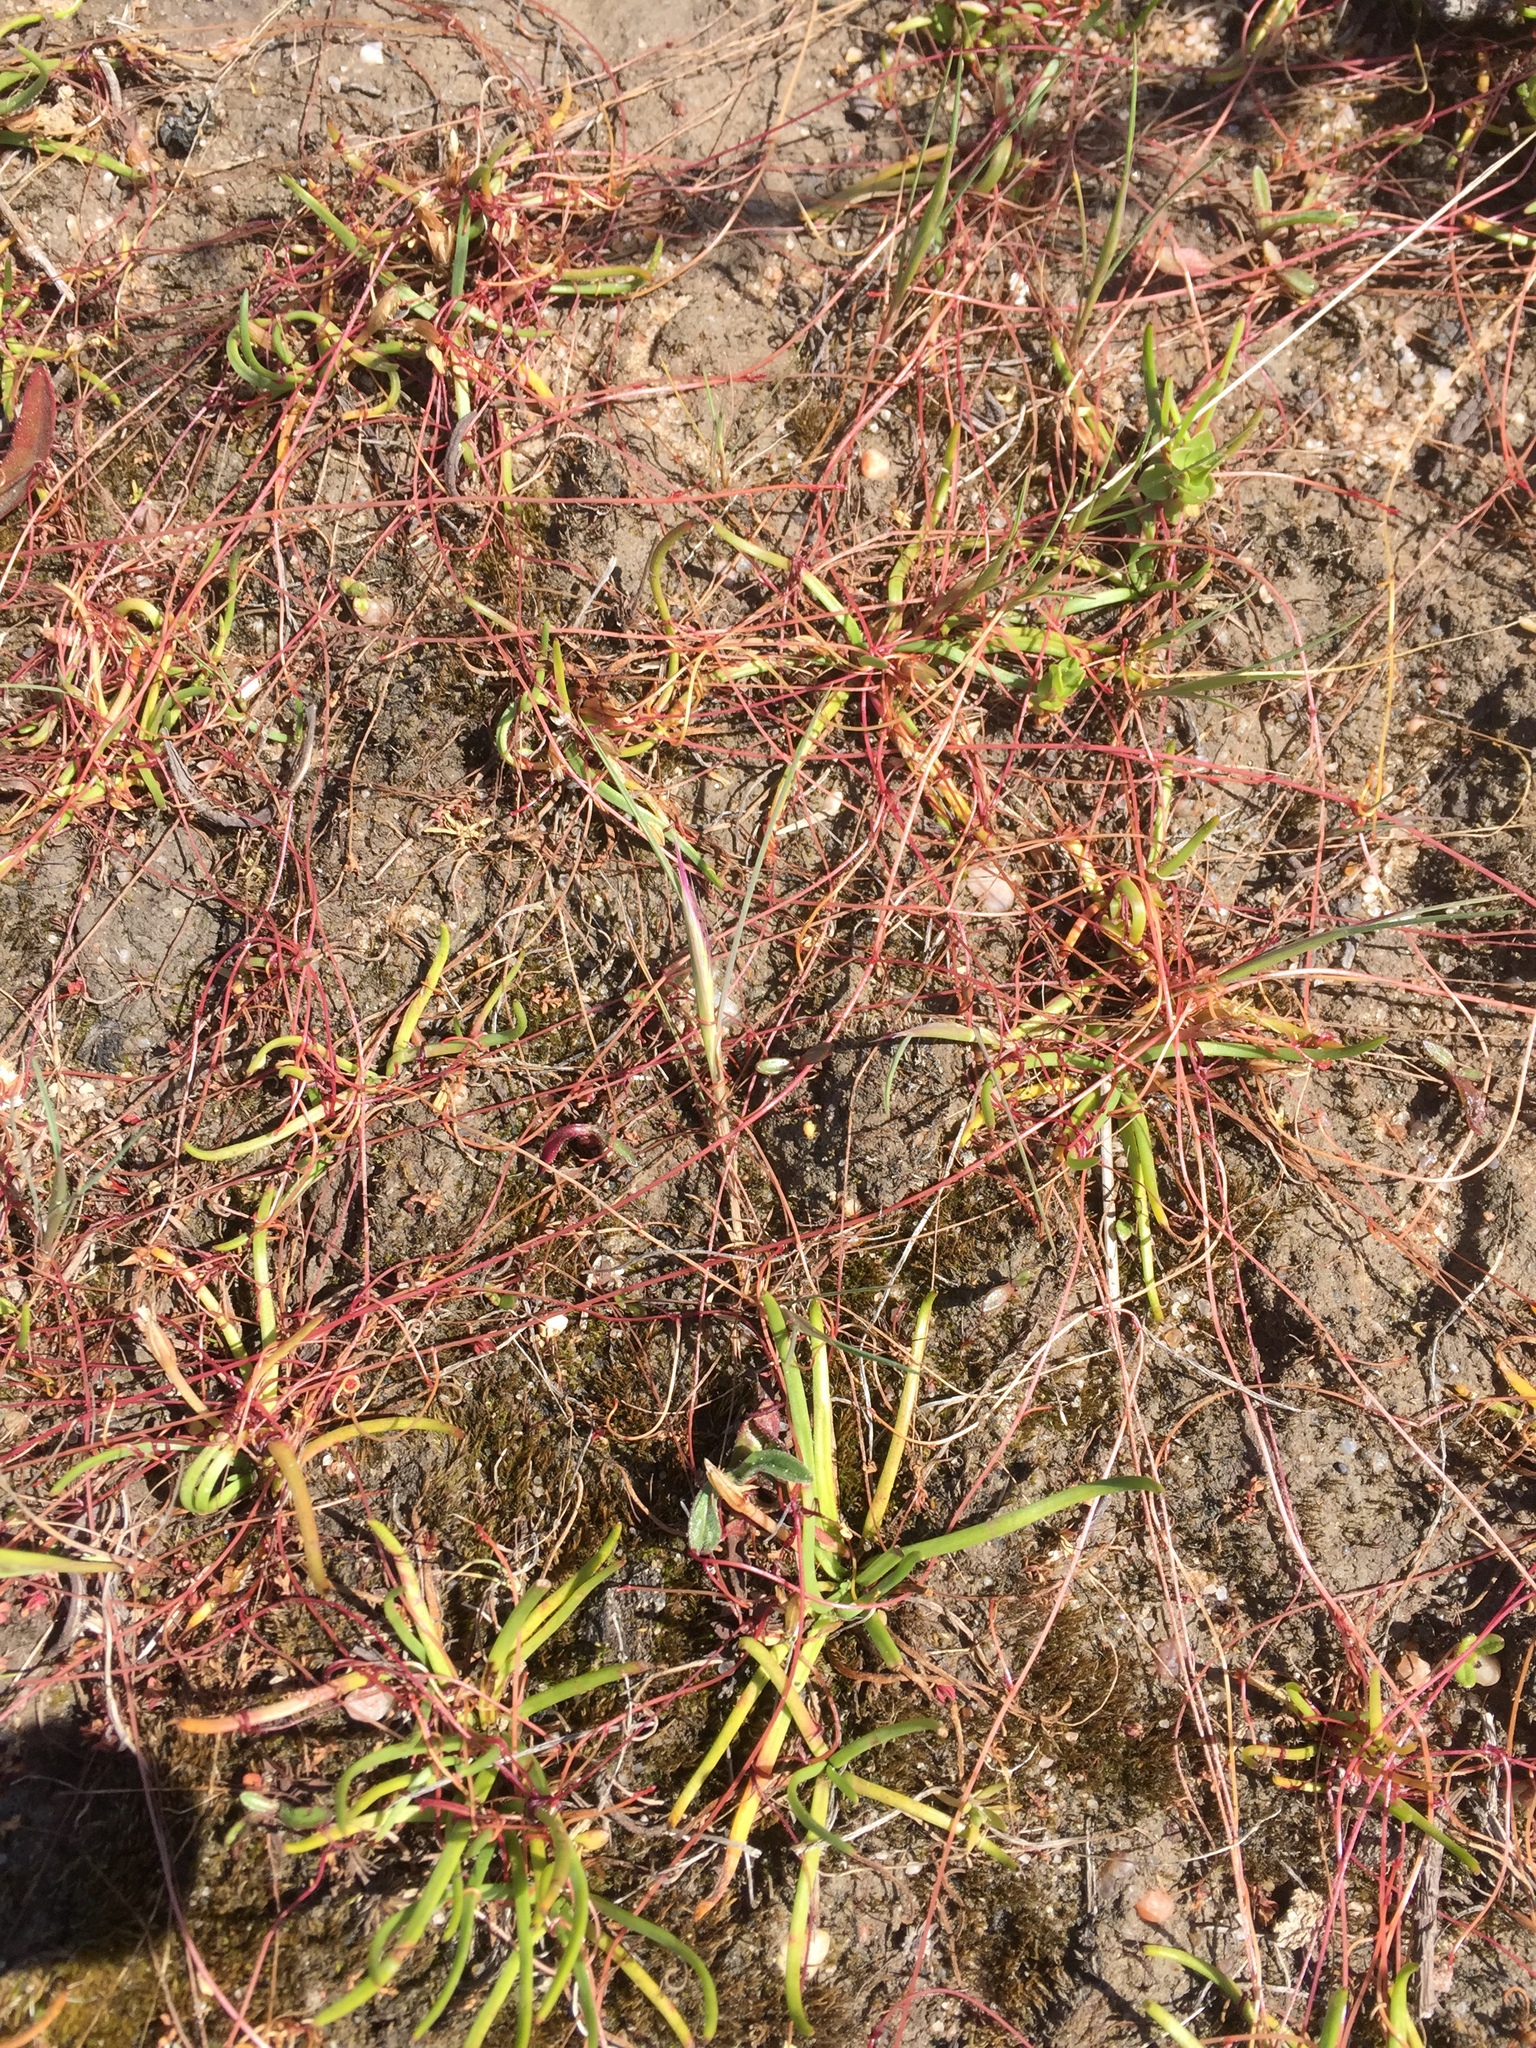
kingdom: Plantae
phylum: Tracheophyta
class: Magnoliopsida
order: Caryophyllales
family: Polygonaceae
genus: Rumex
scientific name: Rumex acetosella
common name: Common sheep sorrel
